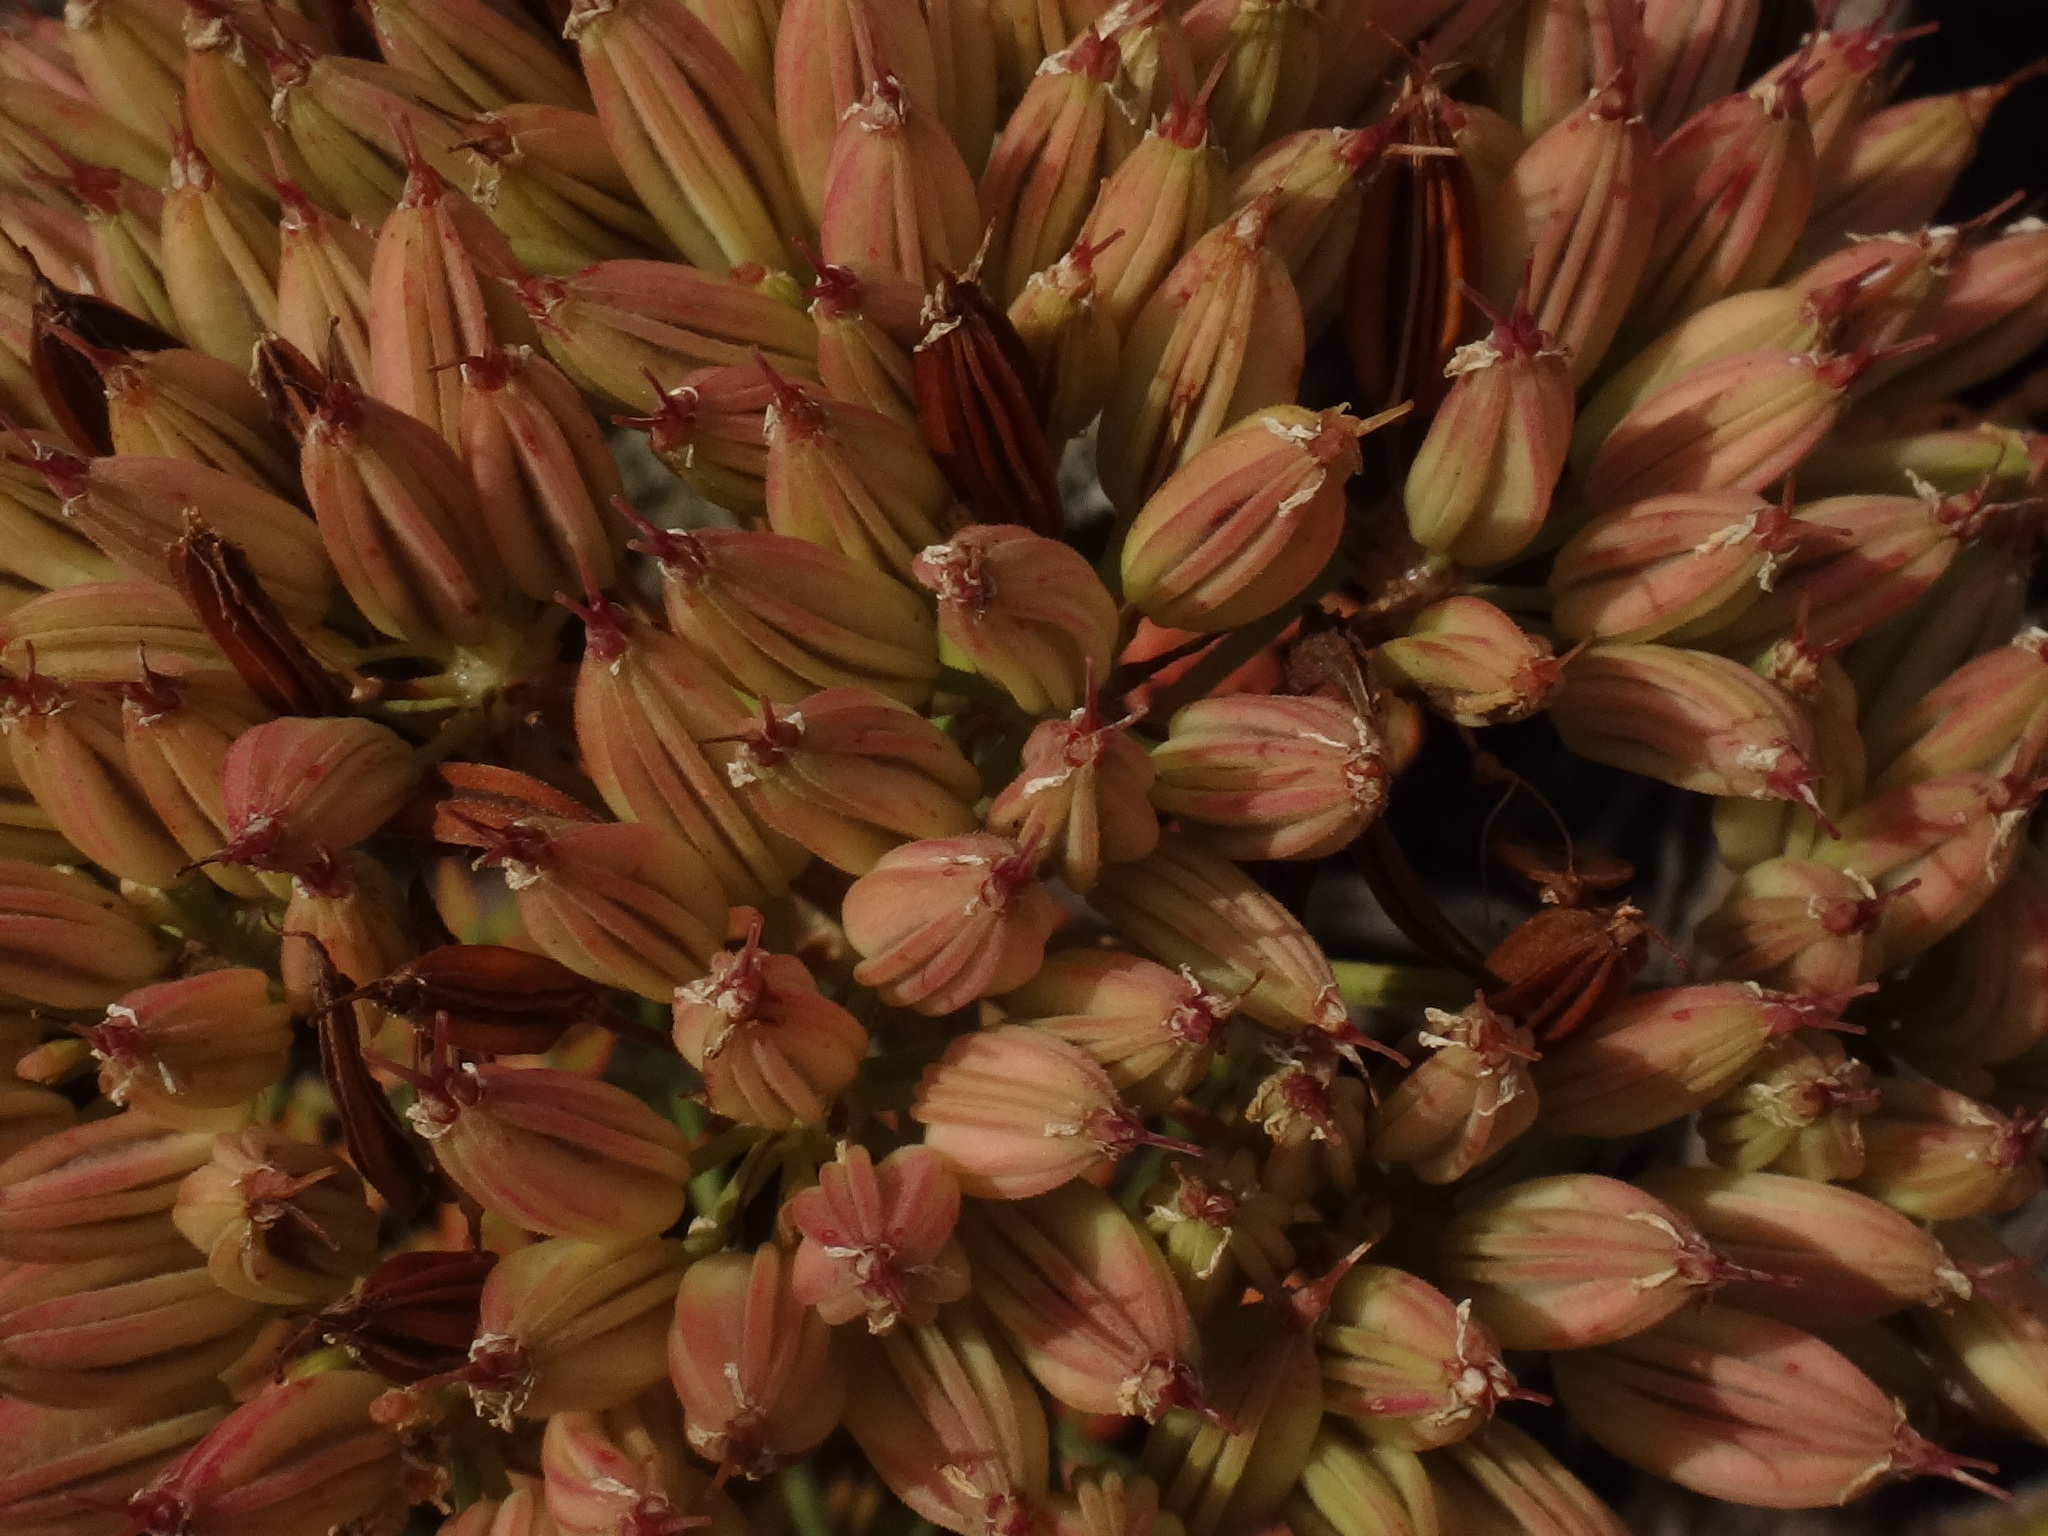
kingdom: Plantae
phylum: Tracheophyta
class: Magnoliopsida
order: Apiales
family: Apiaceae
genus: Todaroa
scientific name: Todaroa aurea
